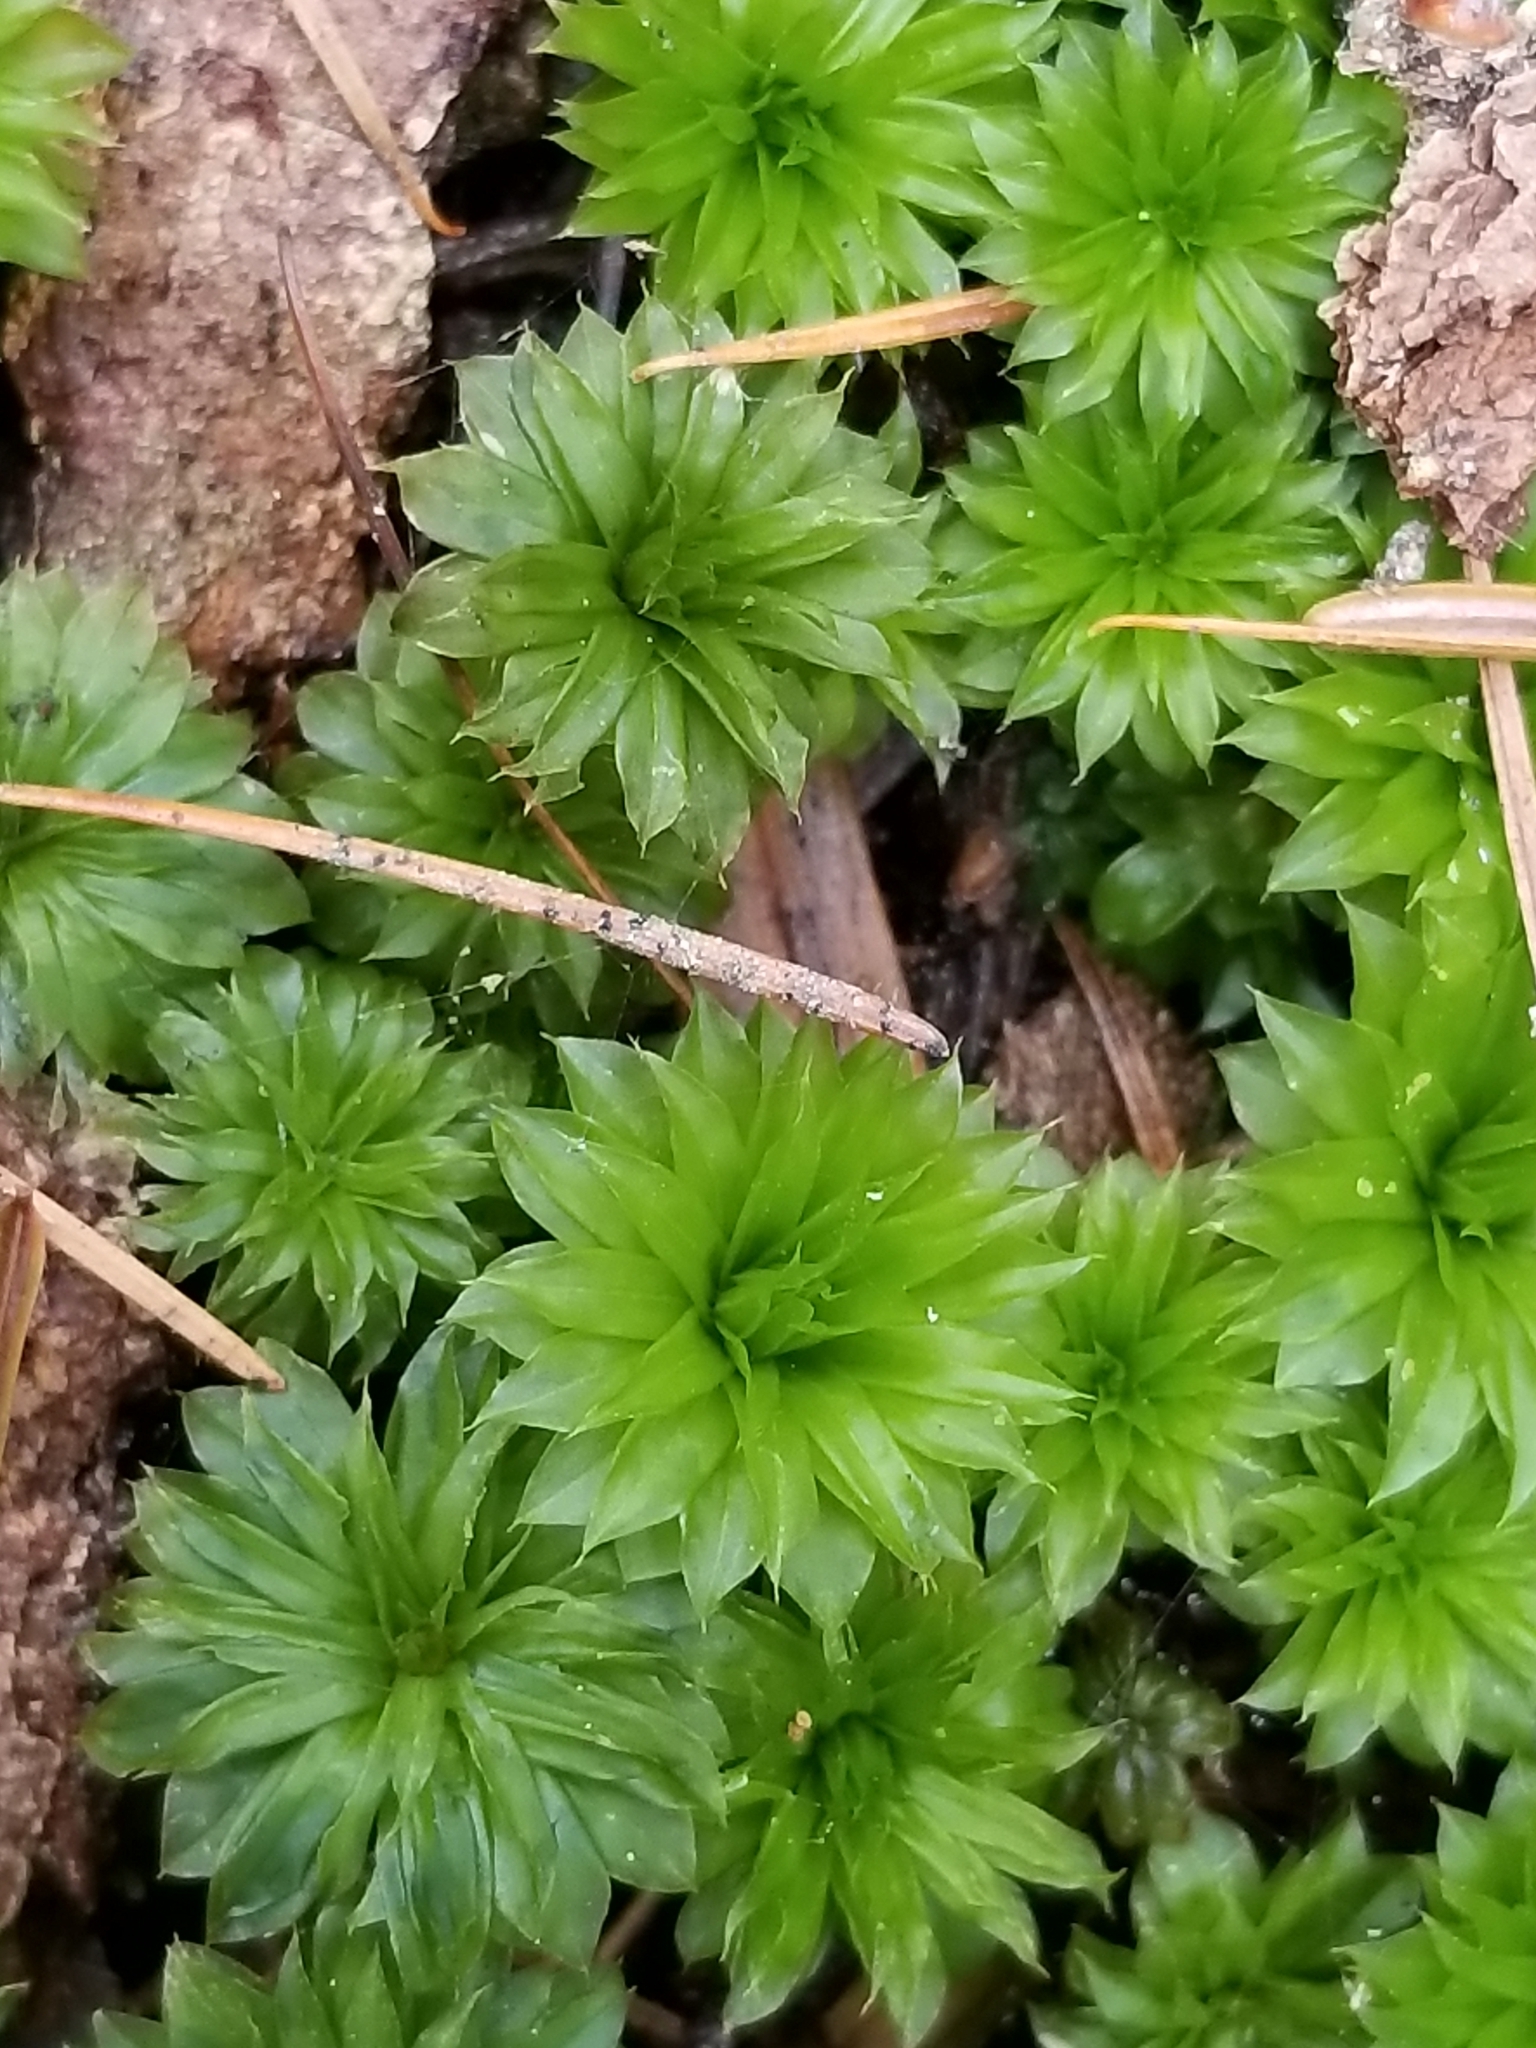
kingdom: Plantae
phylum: Bryophyta
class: Bryopsida
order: Bryales
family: Bryaceae
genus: Rhodobryum
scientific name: Rhodobryum ontariense
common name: Ontario rhodobryum moss
